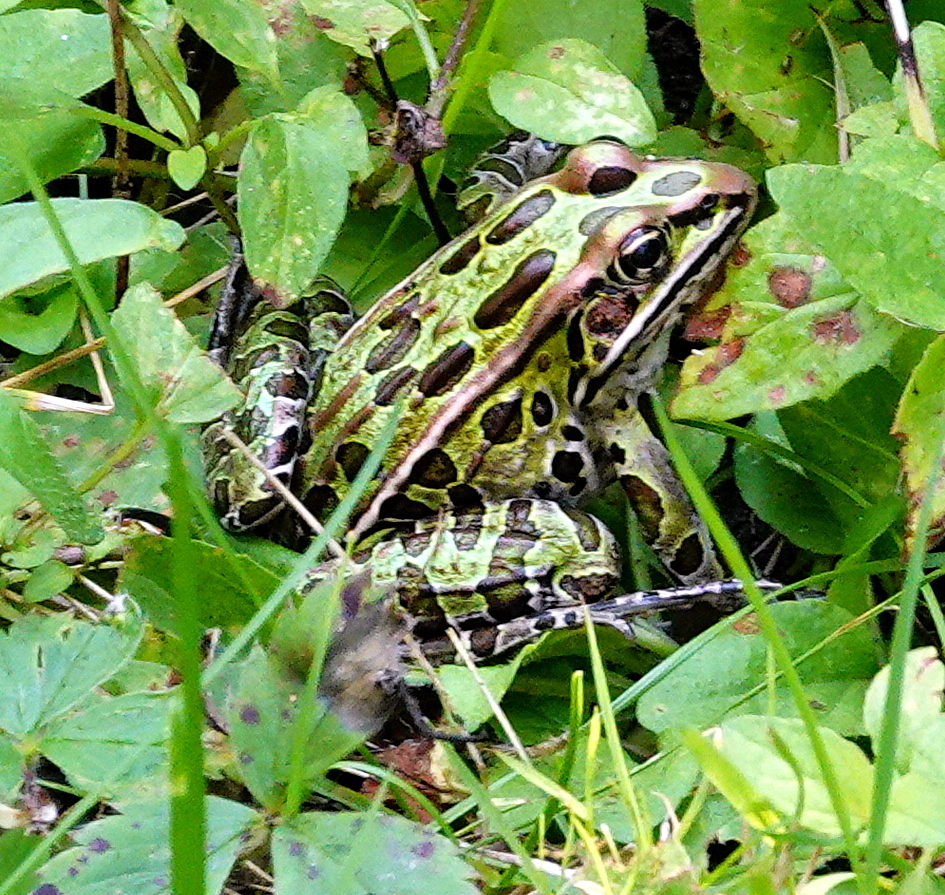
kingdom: Animalia
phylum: Chordata
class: Amphibia
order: Anura
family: Ranidae
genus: Lithobates
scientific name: Lithobates pipiens
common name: Northern leopard frog
